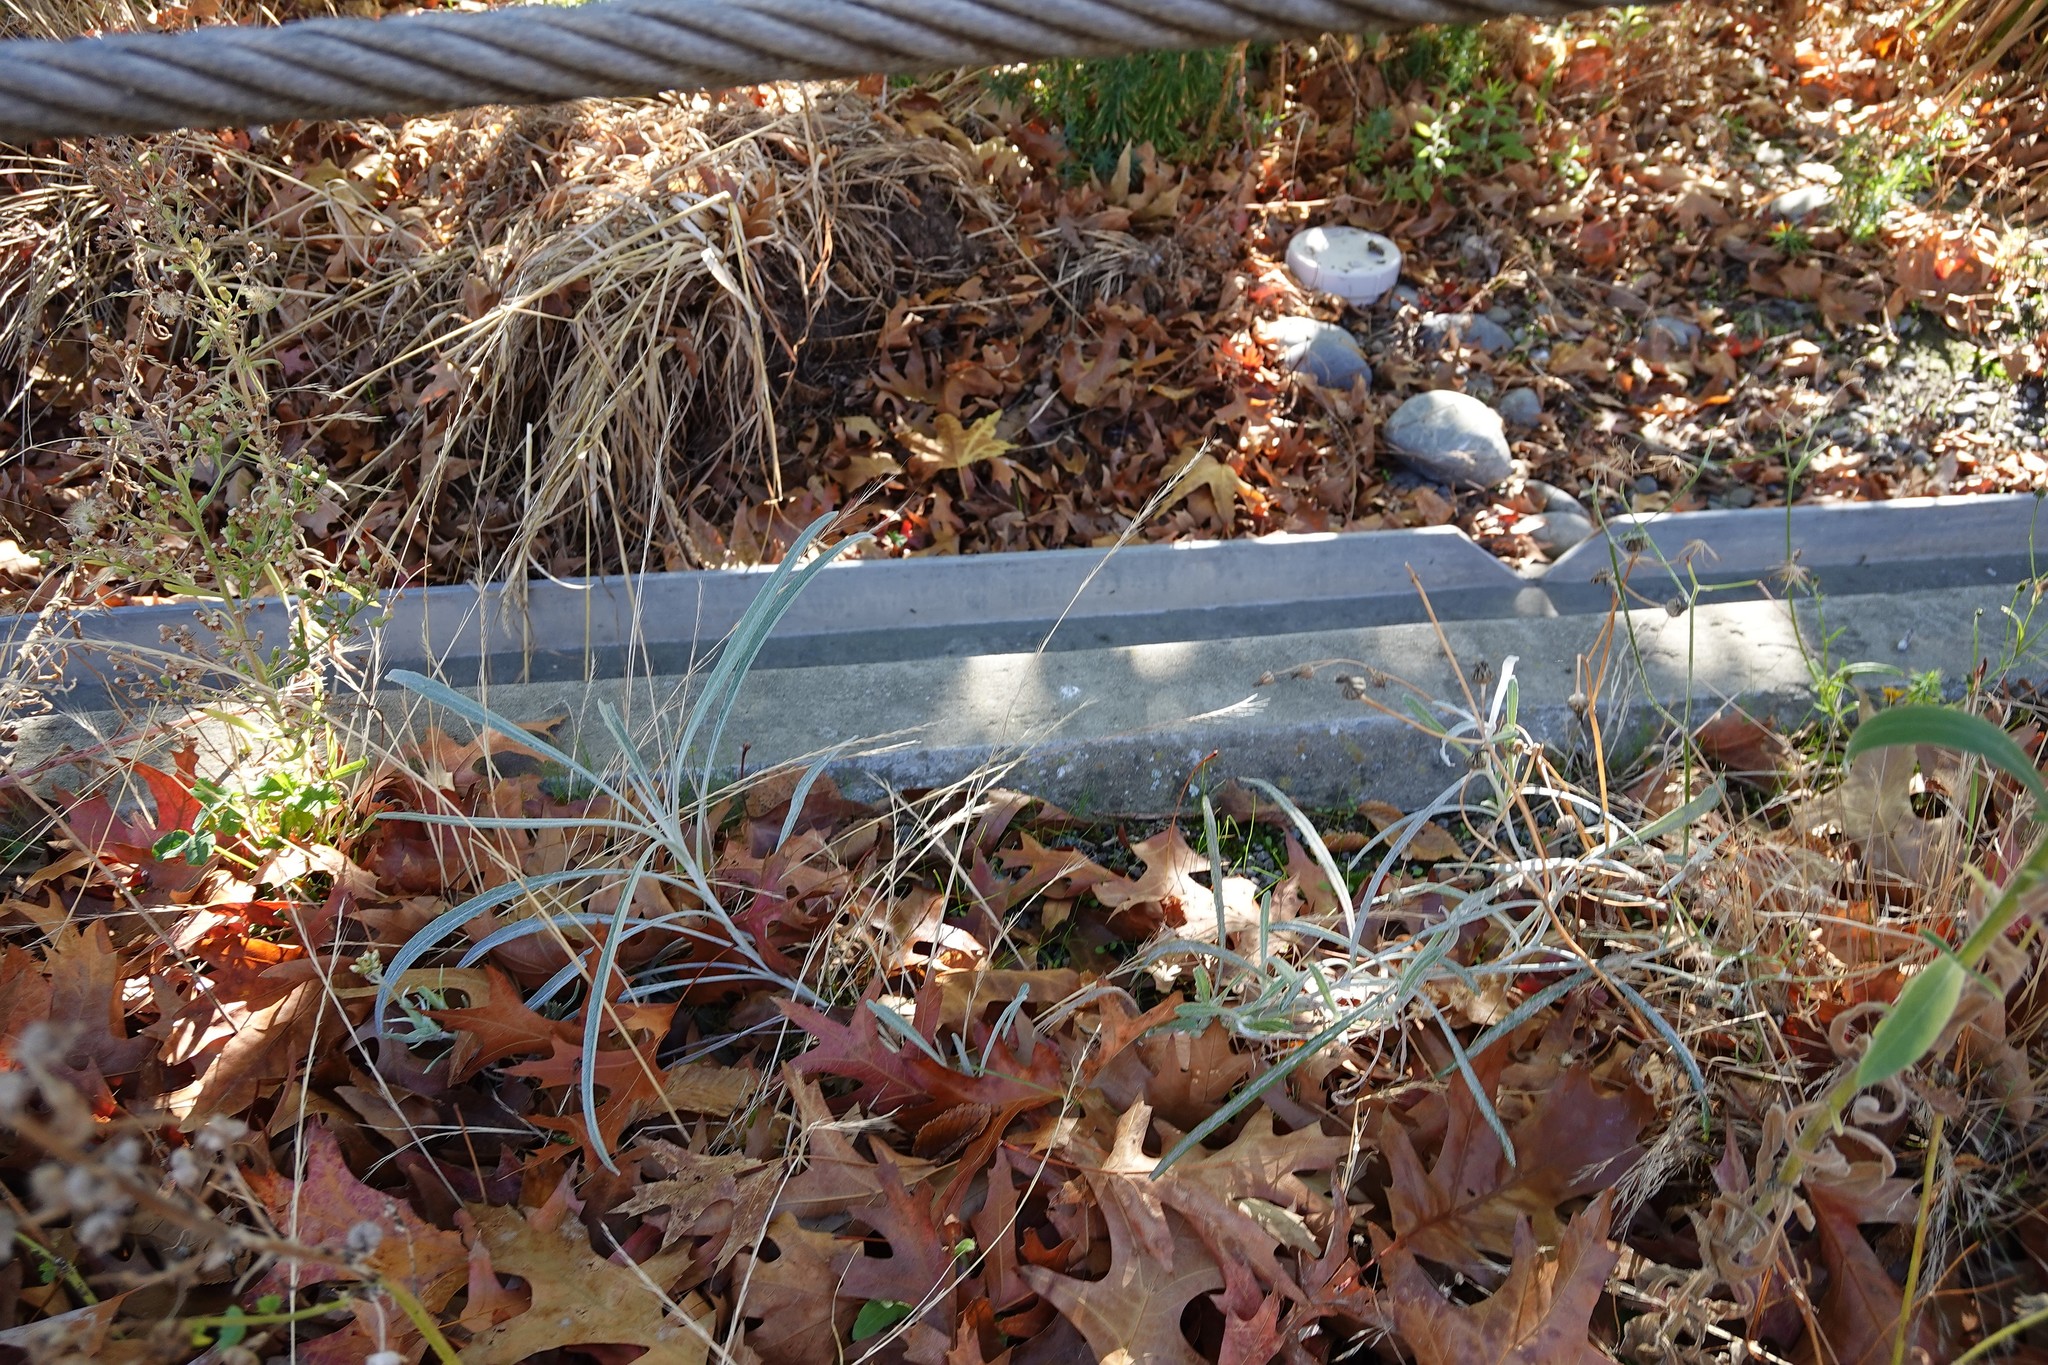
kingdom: Plantae
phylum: Tracheophyta
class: Magnoliopsida
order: Asterales
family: Asteraceae
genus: Senecio
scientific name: Senecio quadridentatus
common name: Cotton fireweed
